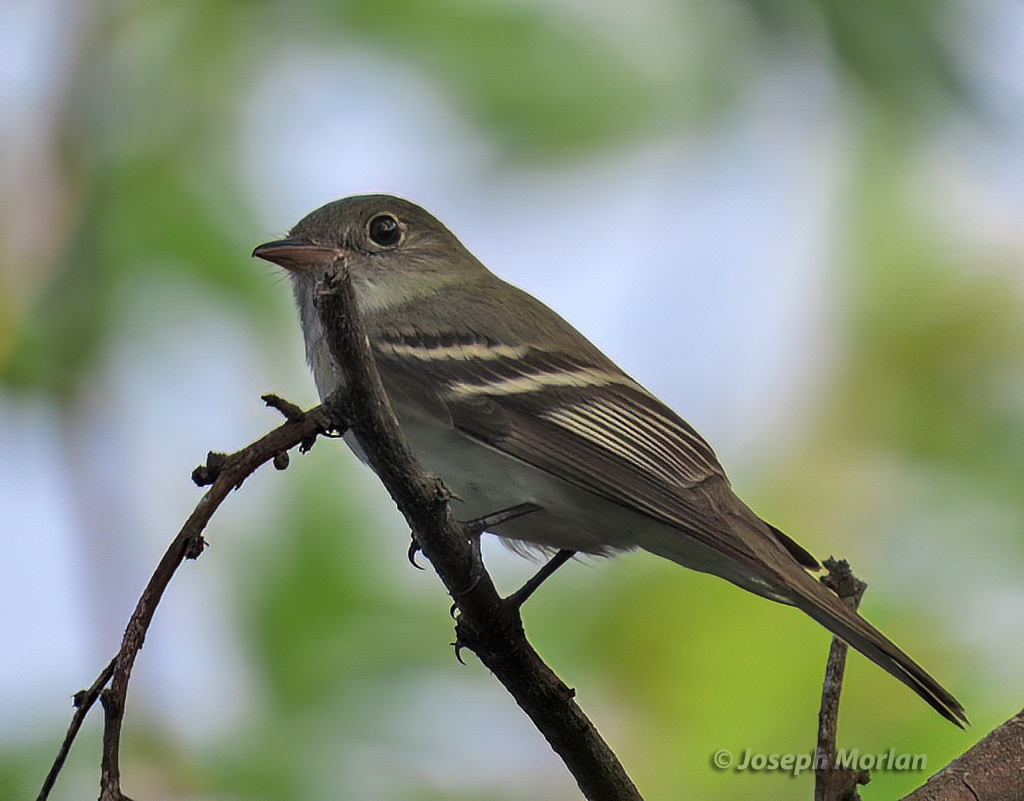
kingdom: Animalia
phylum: Chordata
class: Aves
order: Passeriformes
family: Tyrannidae
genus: Empidonax
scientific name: Empidonax virescens
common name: Acadian flycatcher
